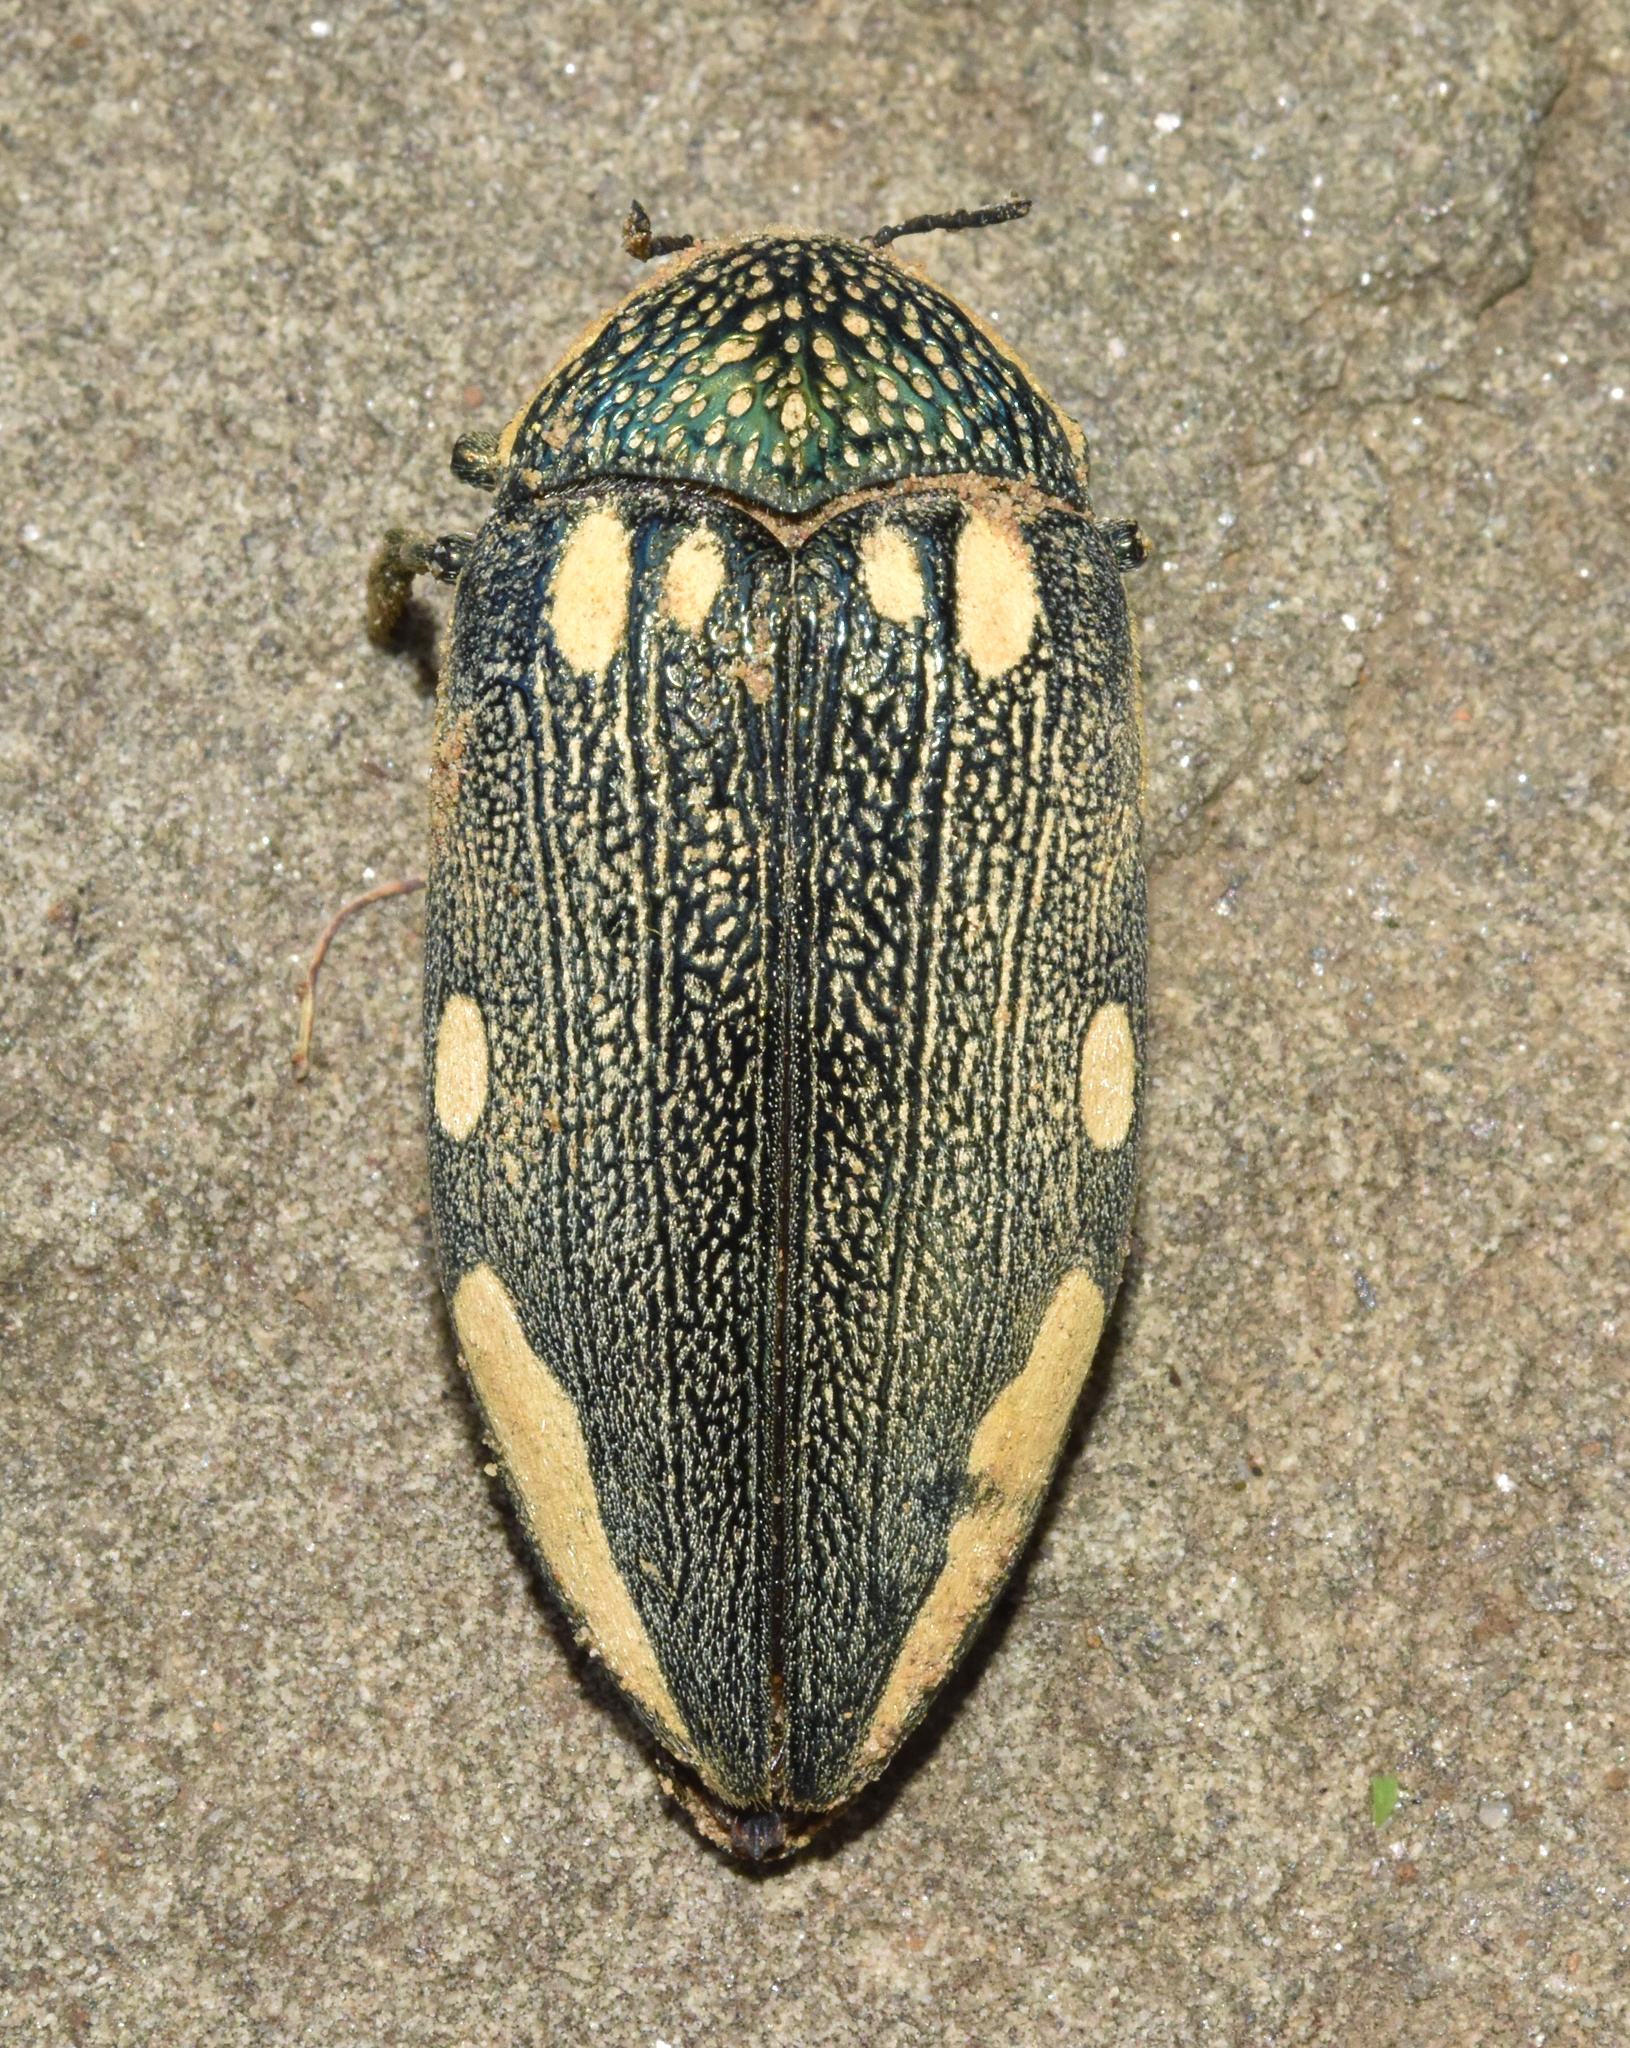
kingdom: Animalia
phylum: Arthropoda
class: Insecta
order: Coleoptera
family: Buprestidae
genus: Sternocera
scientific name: Sternocera orissa
